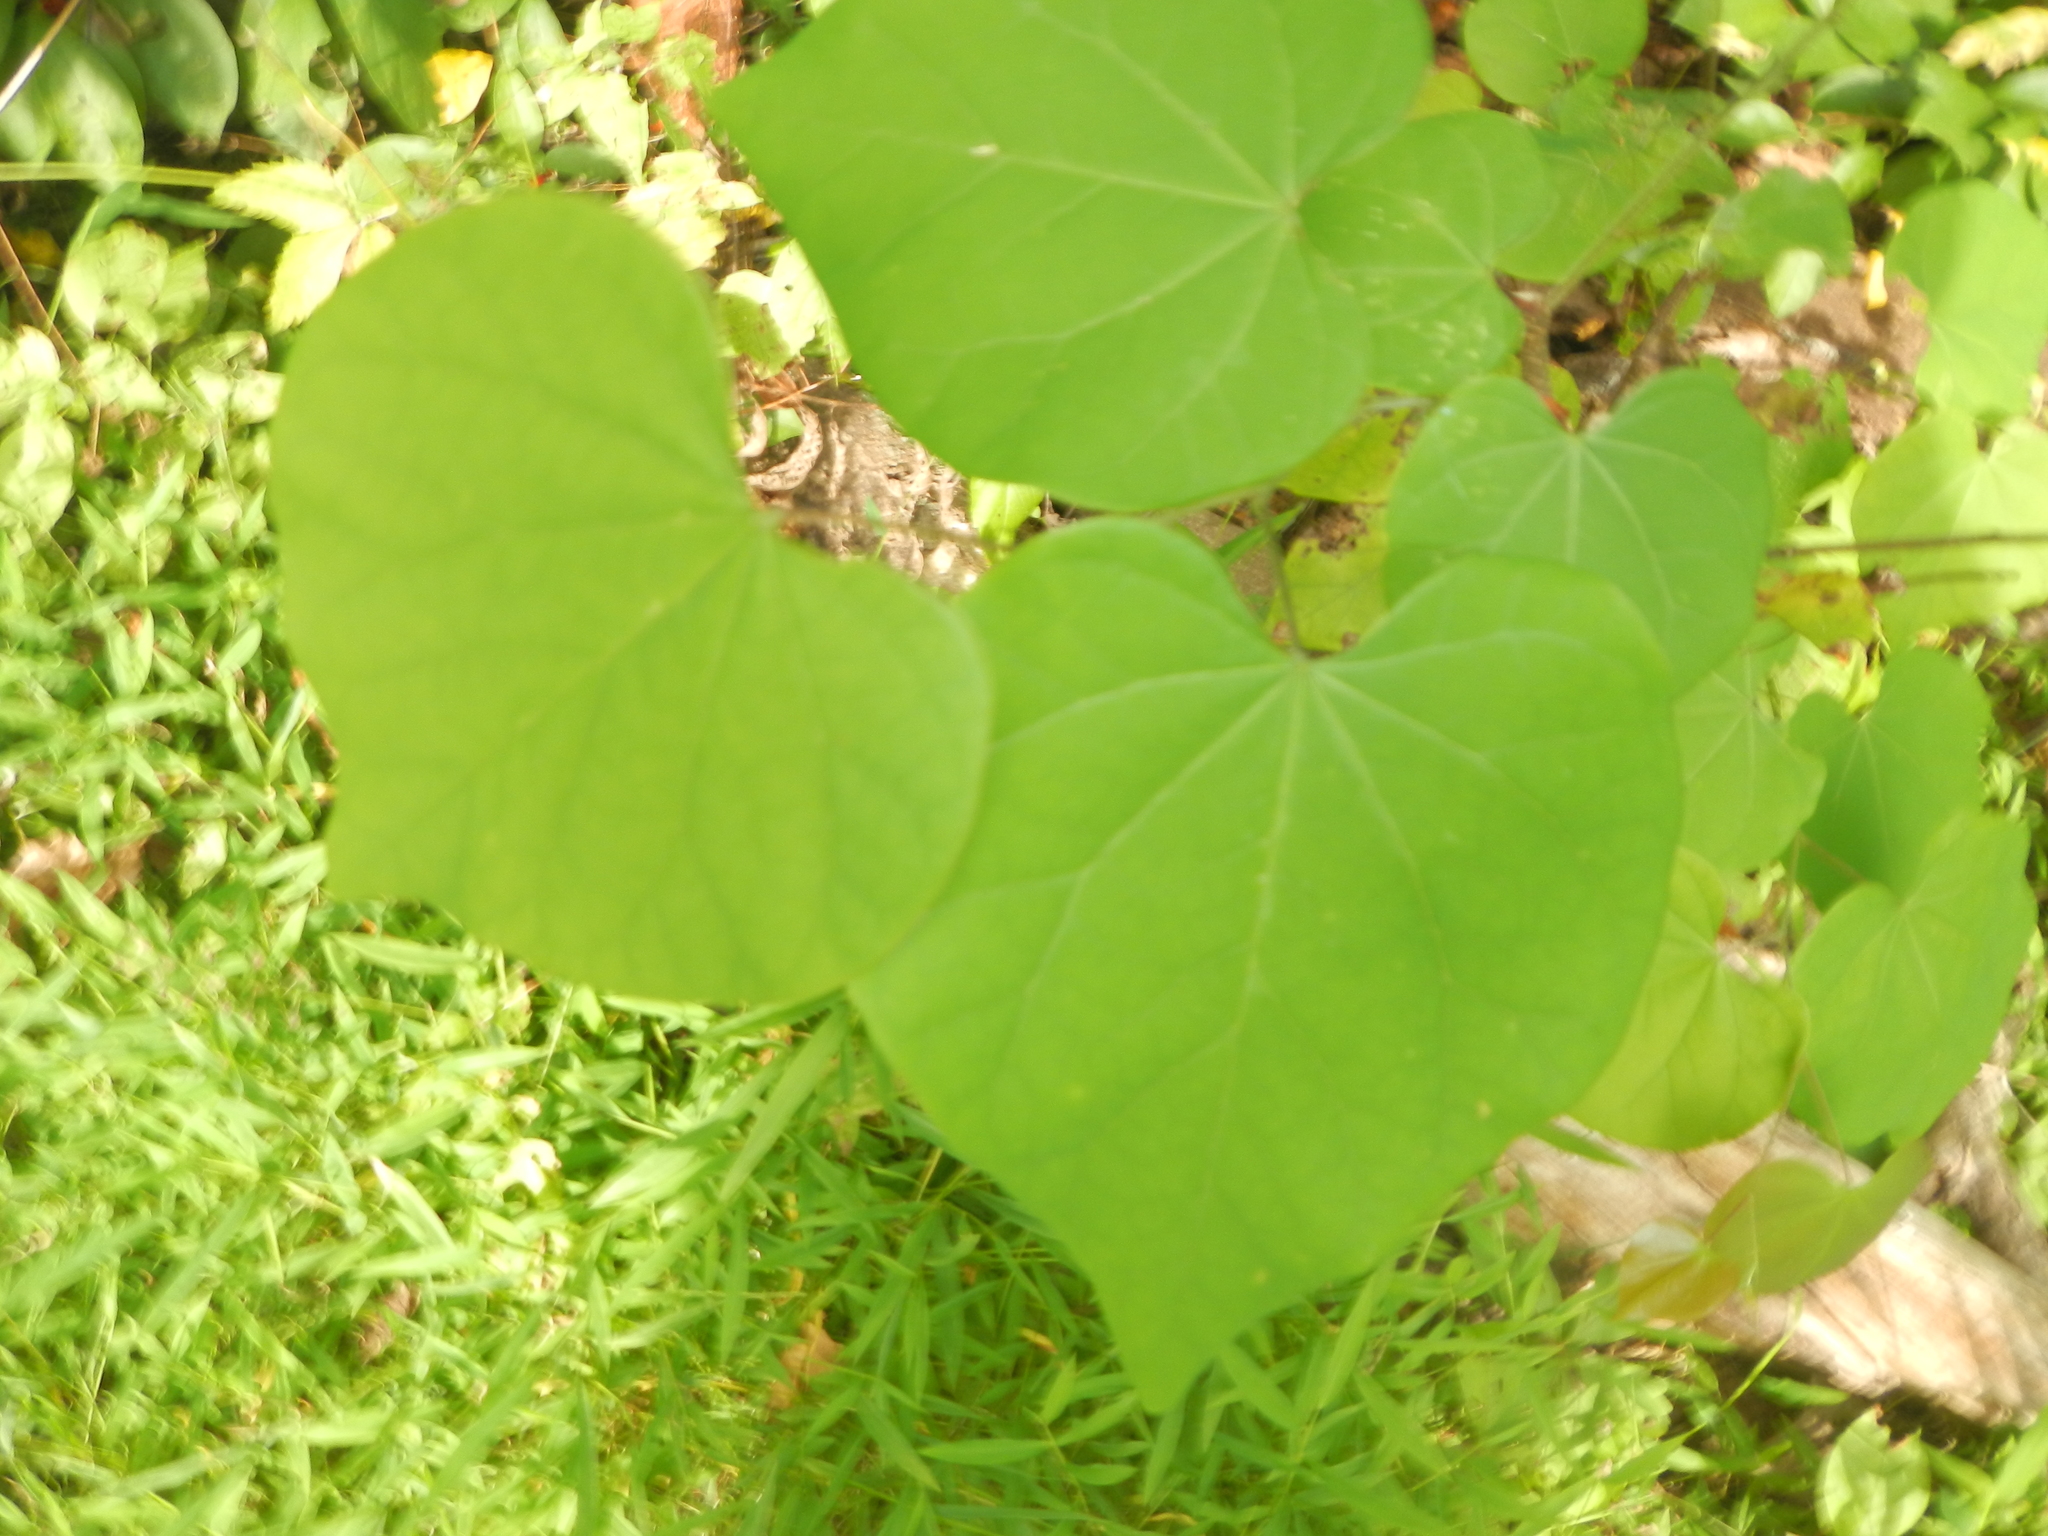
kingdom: Plantae
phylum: Tracheophyta
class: Magnoliopsida
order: Fabales
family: Fabaceae
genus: Cercis
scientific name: Cercis canadensis
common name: Eastern redbud
